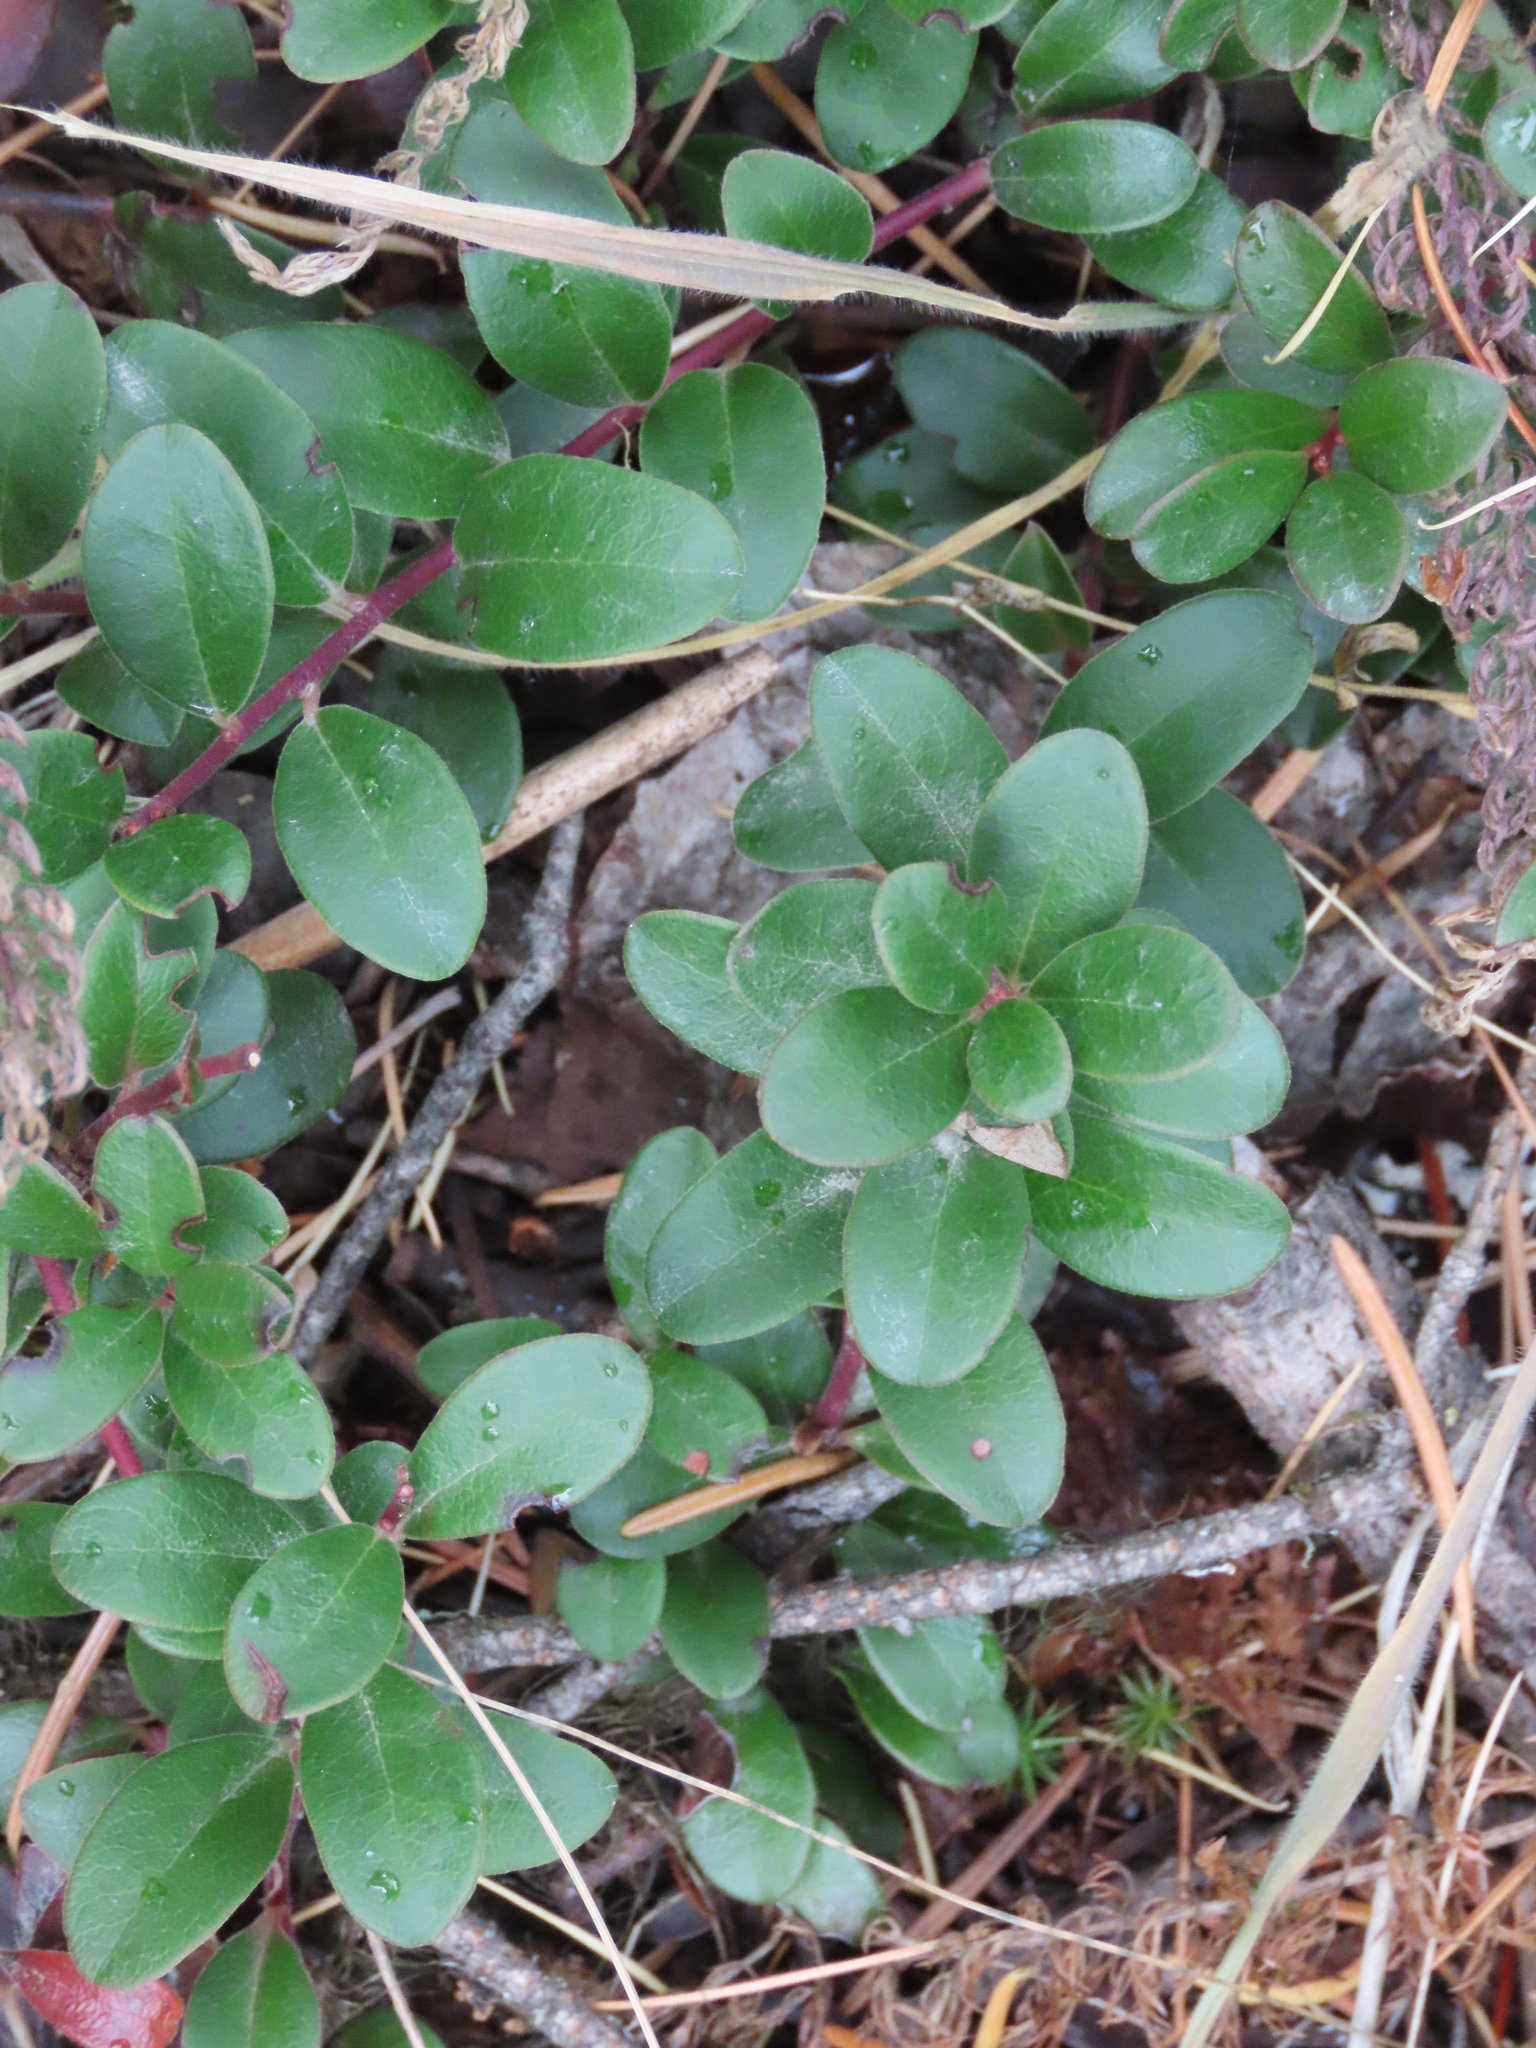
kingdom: Plantae
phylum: Tracheophyta
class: Magnoliopsida
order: Ericales
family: Ericaceae
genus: Arctostaphylos
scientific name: Arctostaphylos uva-ursi
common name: Bearberry
